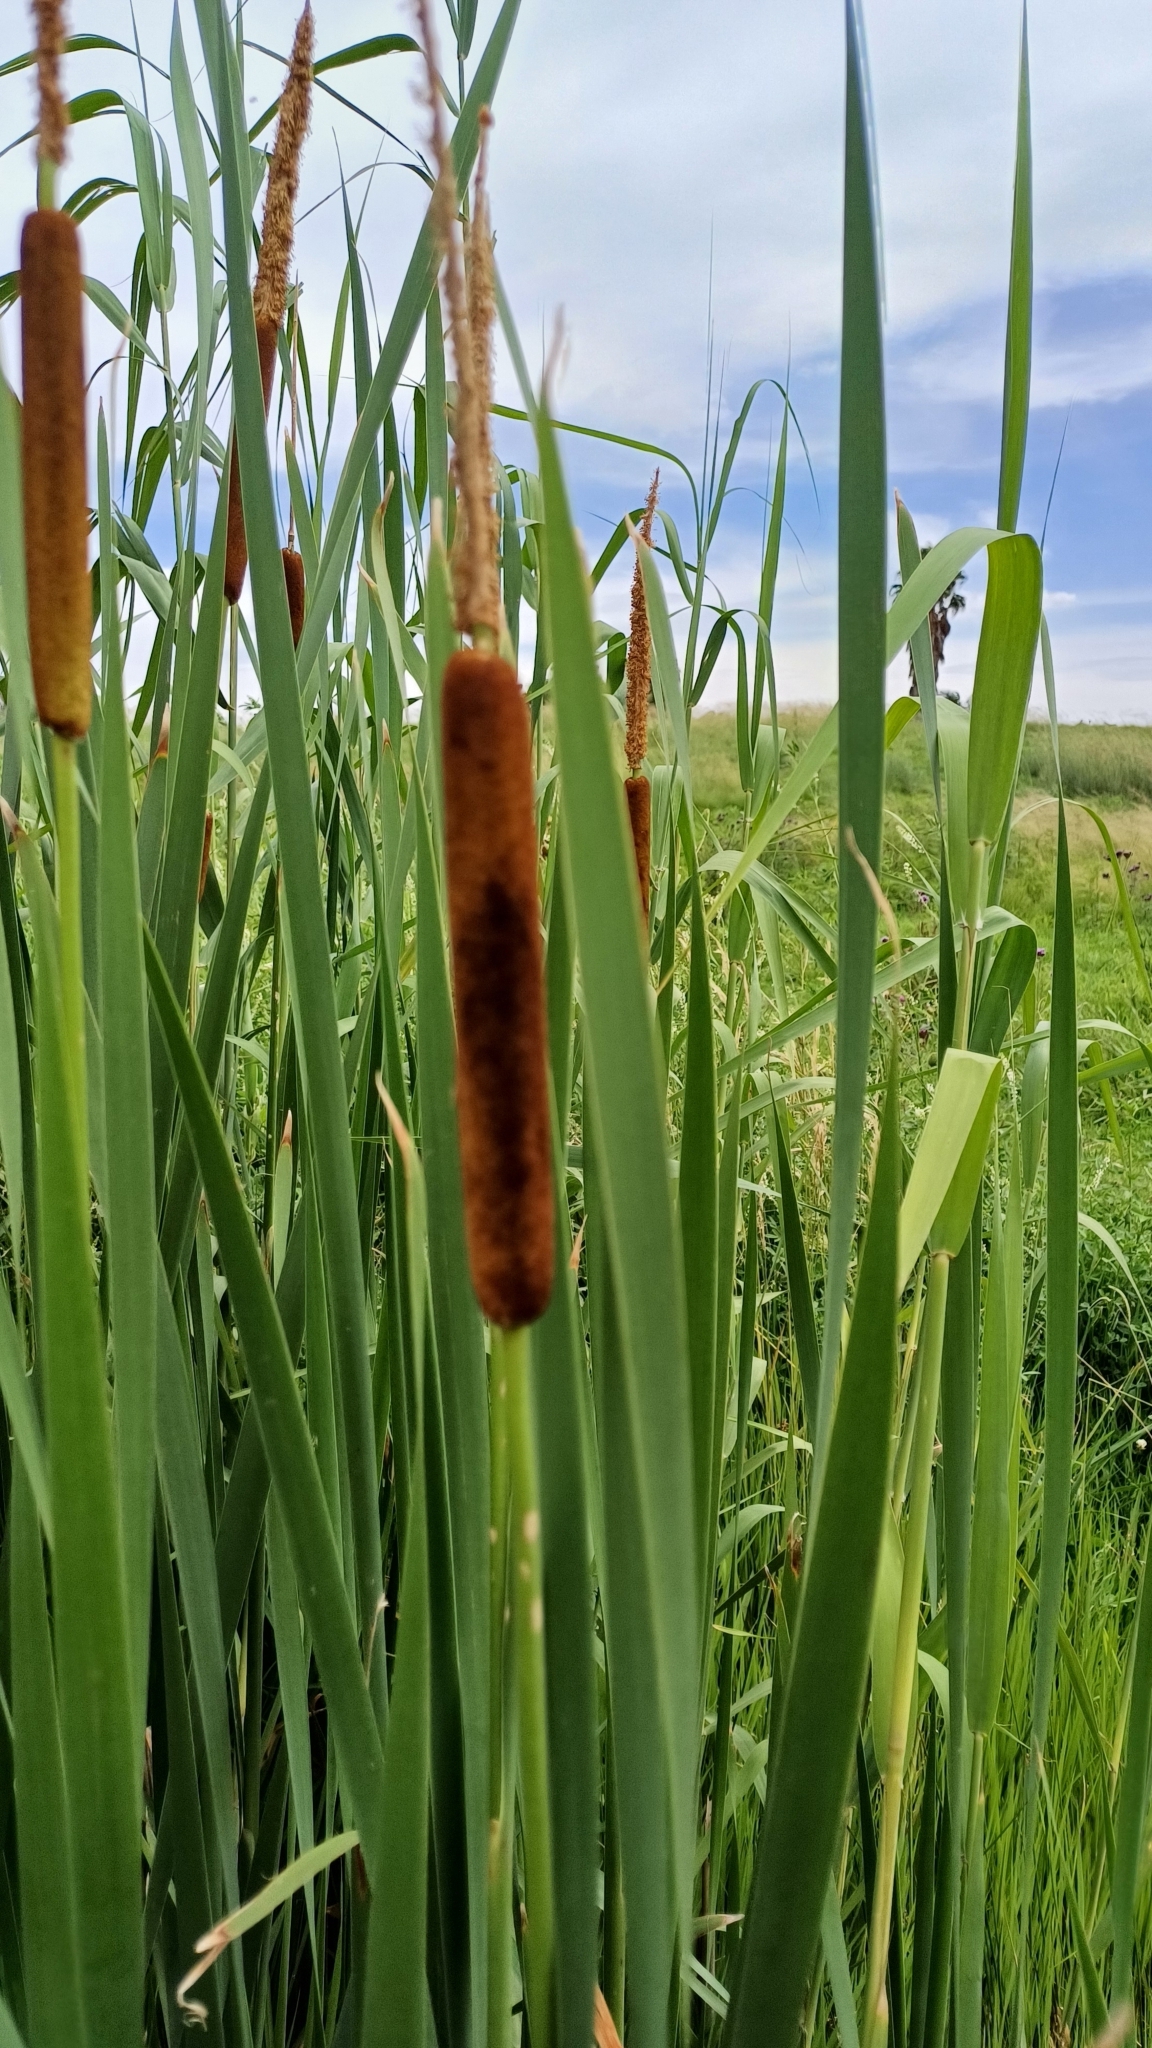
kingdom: Plantae
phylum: Tracheophyta
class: Liliopsida
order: Poales
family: Typhaceae
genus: Typha
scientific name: Typha capensis
